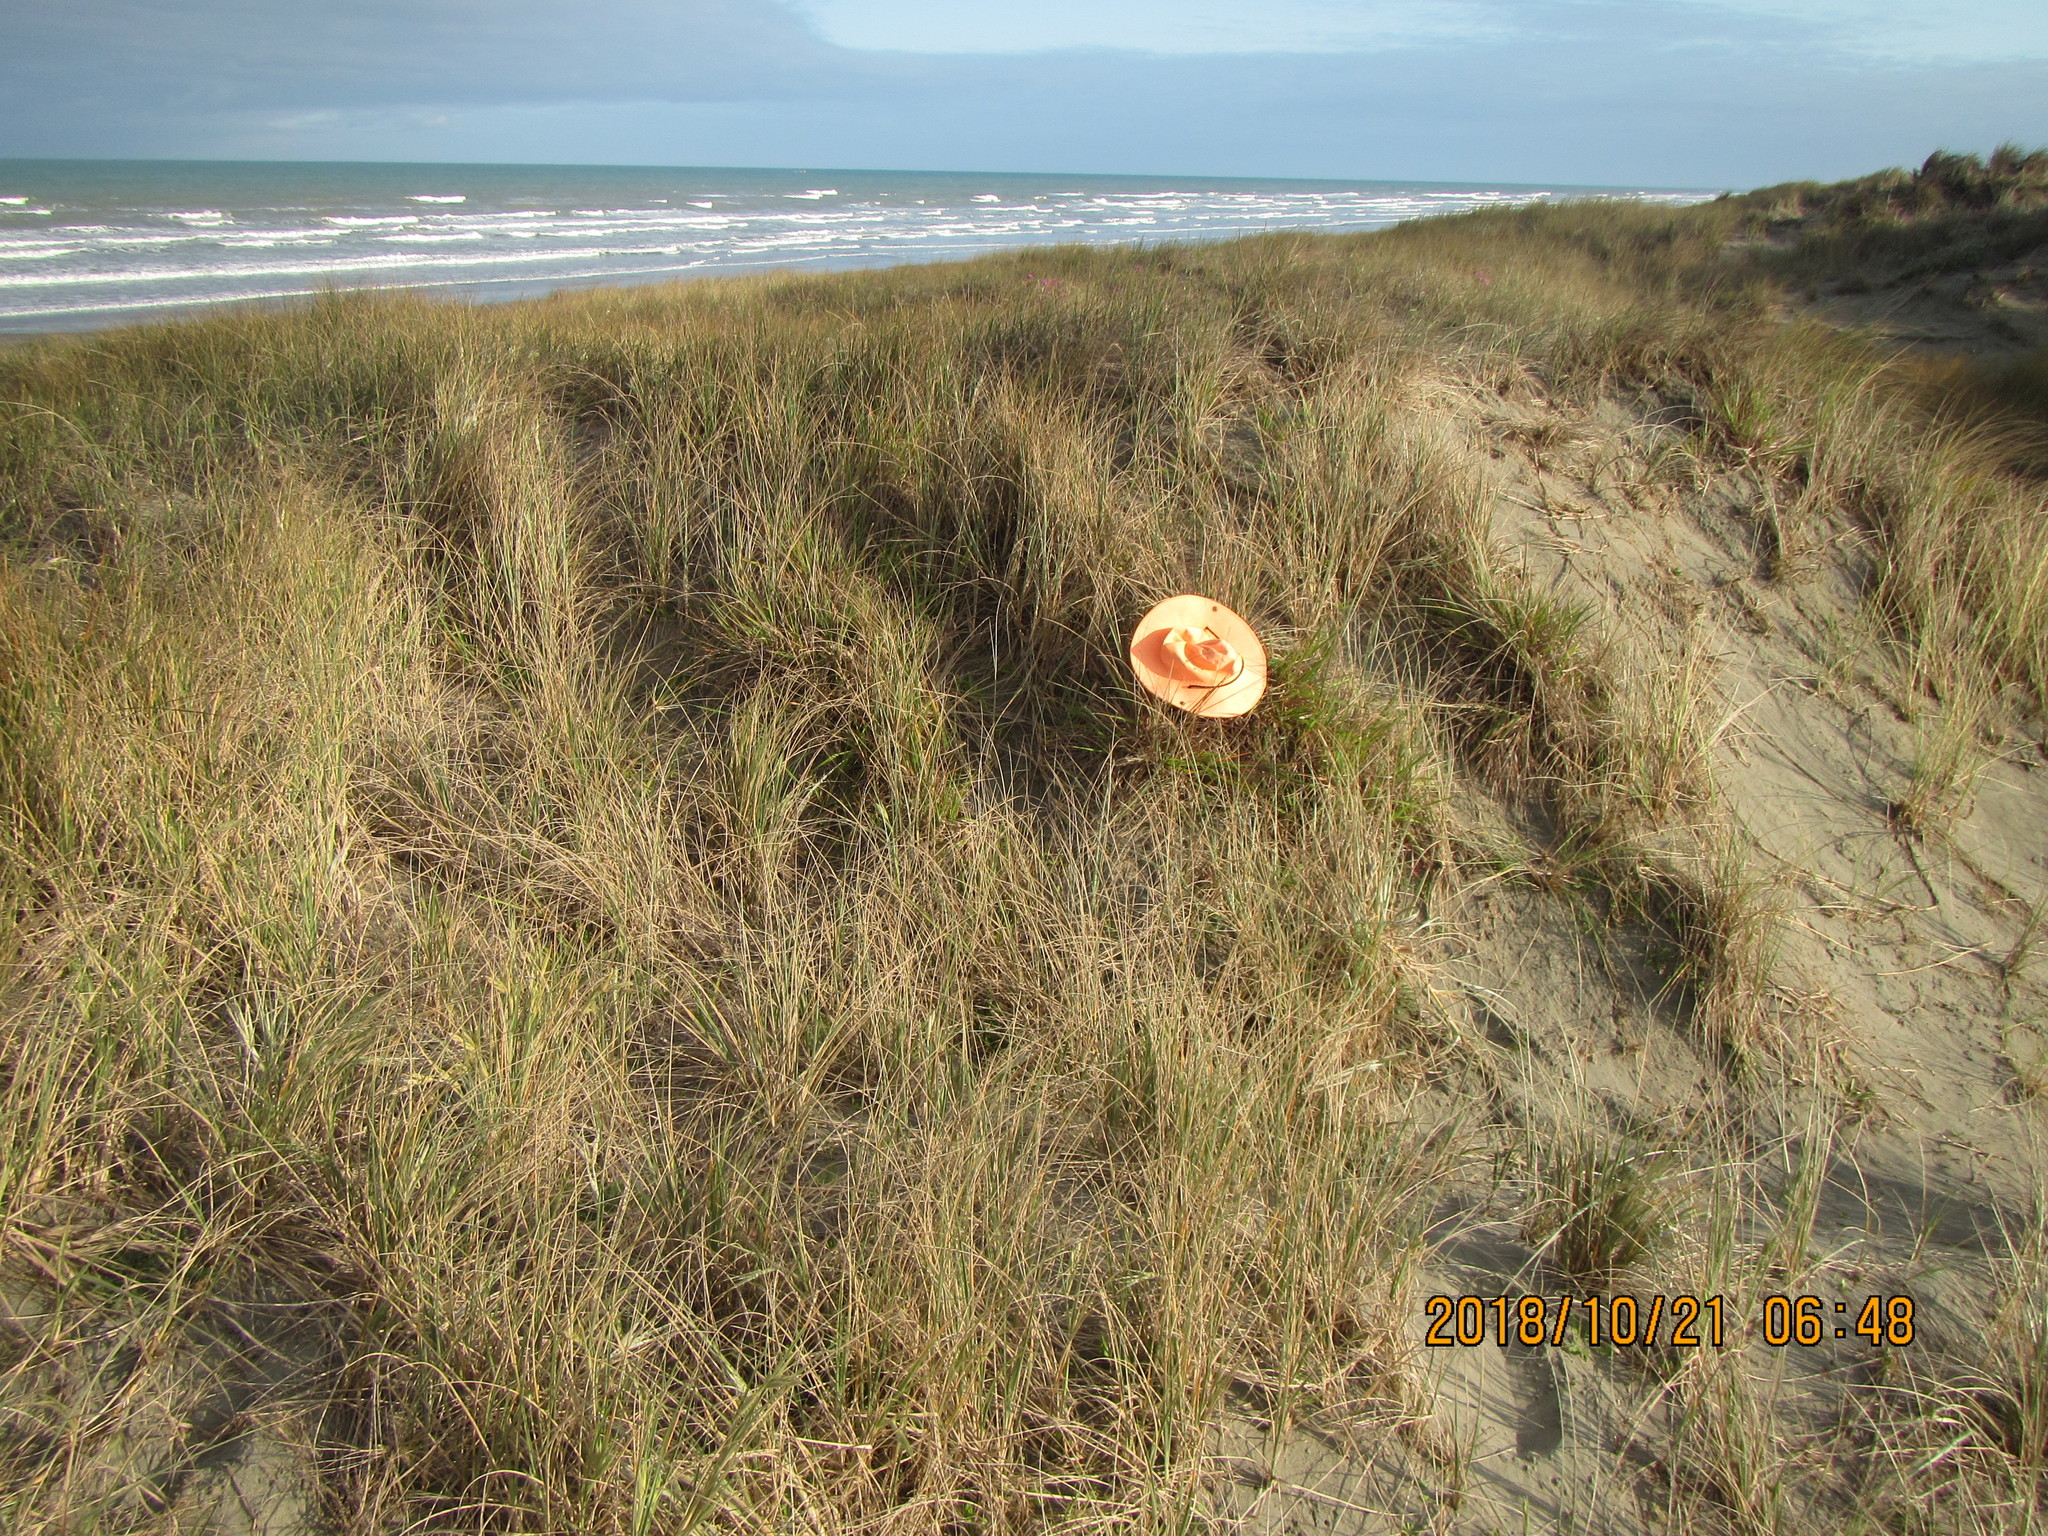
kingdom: Animalia
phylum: Arthropoda
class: Arachnida
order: Araneae
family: Salticidae
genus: Trite
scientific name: Trite auricoma
